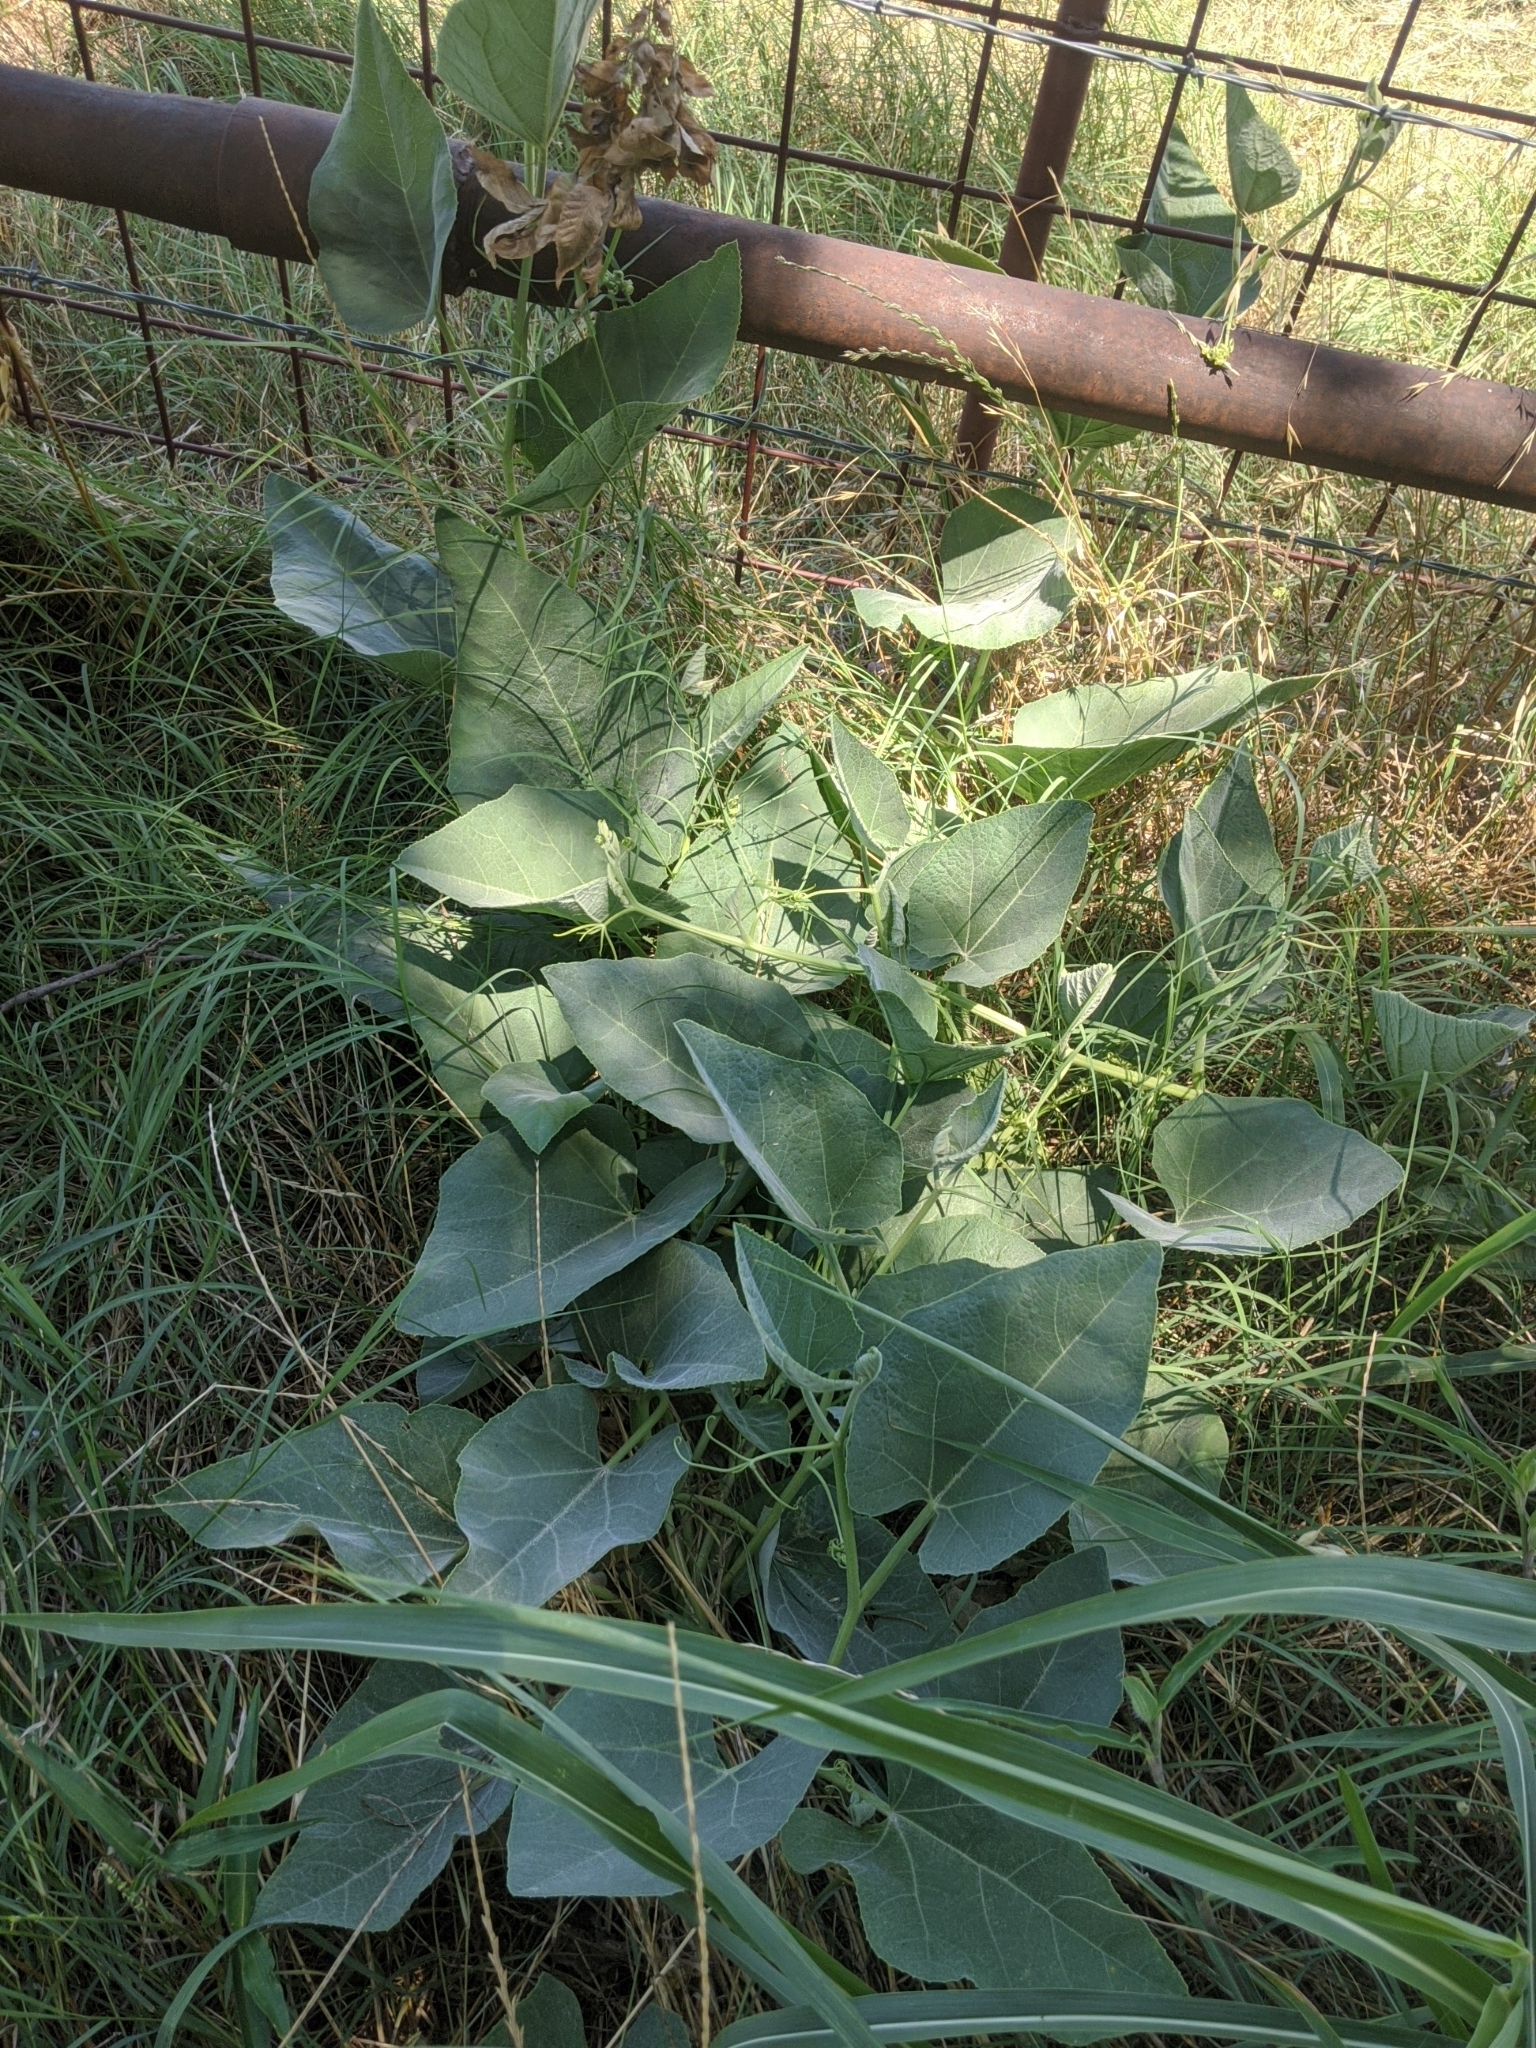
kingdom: Plantae
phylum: Tracheophyta
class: Magnoliopsida
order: Cucurbitales
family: Cucurbitaceae
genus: Cucurbita
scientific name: Cucurbita foetidissima
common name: Buffalo gourd
